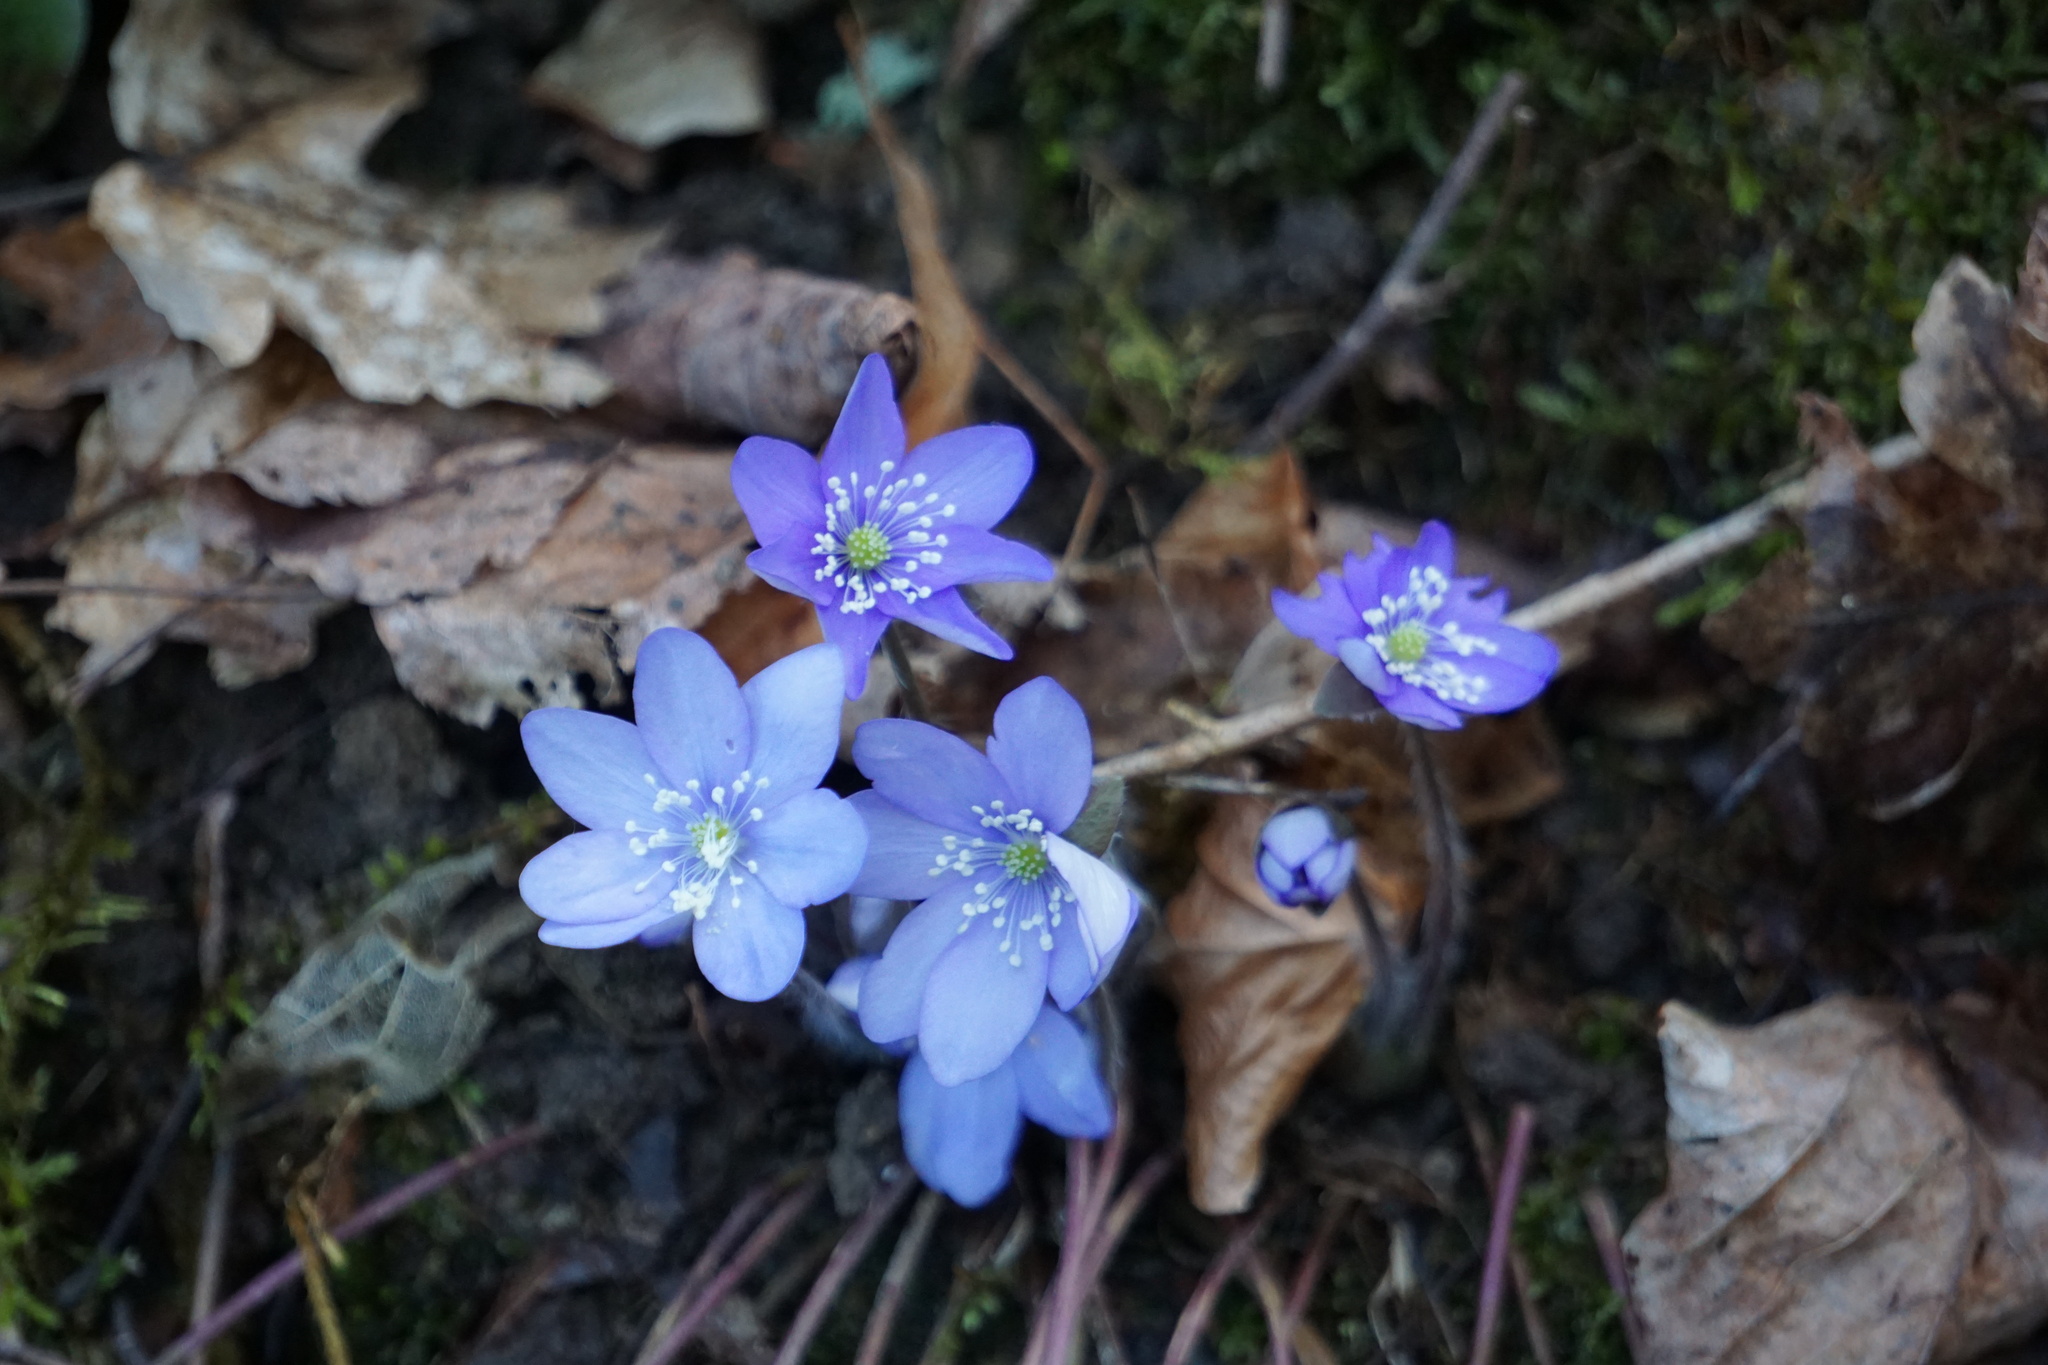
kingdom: Plantae
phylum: Tracheophyta
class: Magnoliopsida
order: Ranunculales
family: Ranunculaceae
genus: Hepatica
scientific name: Hepatica nobilis
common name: Liverleaf
